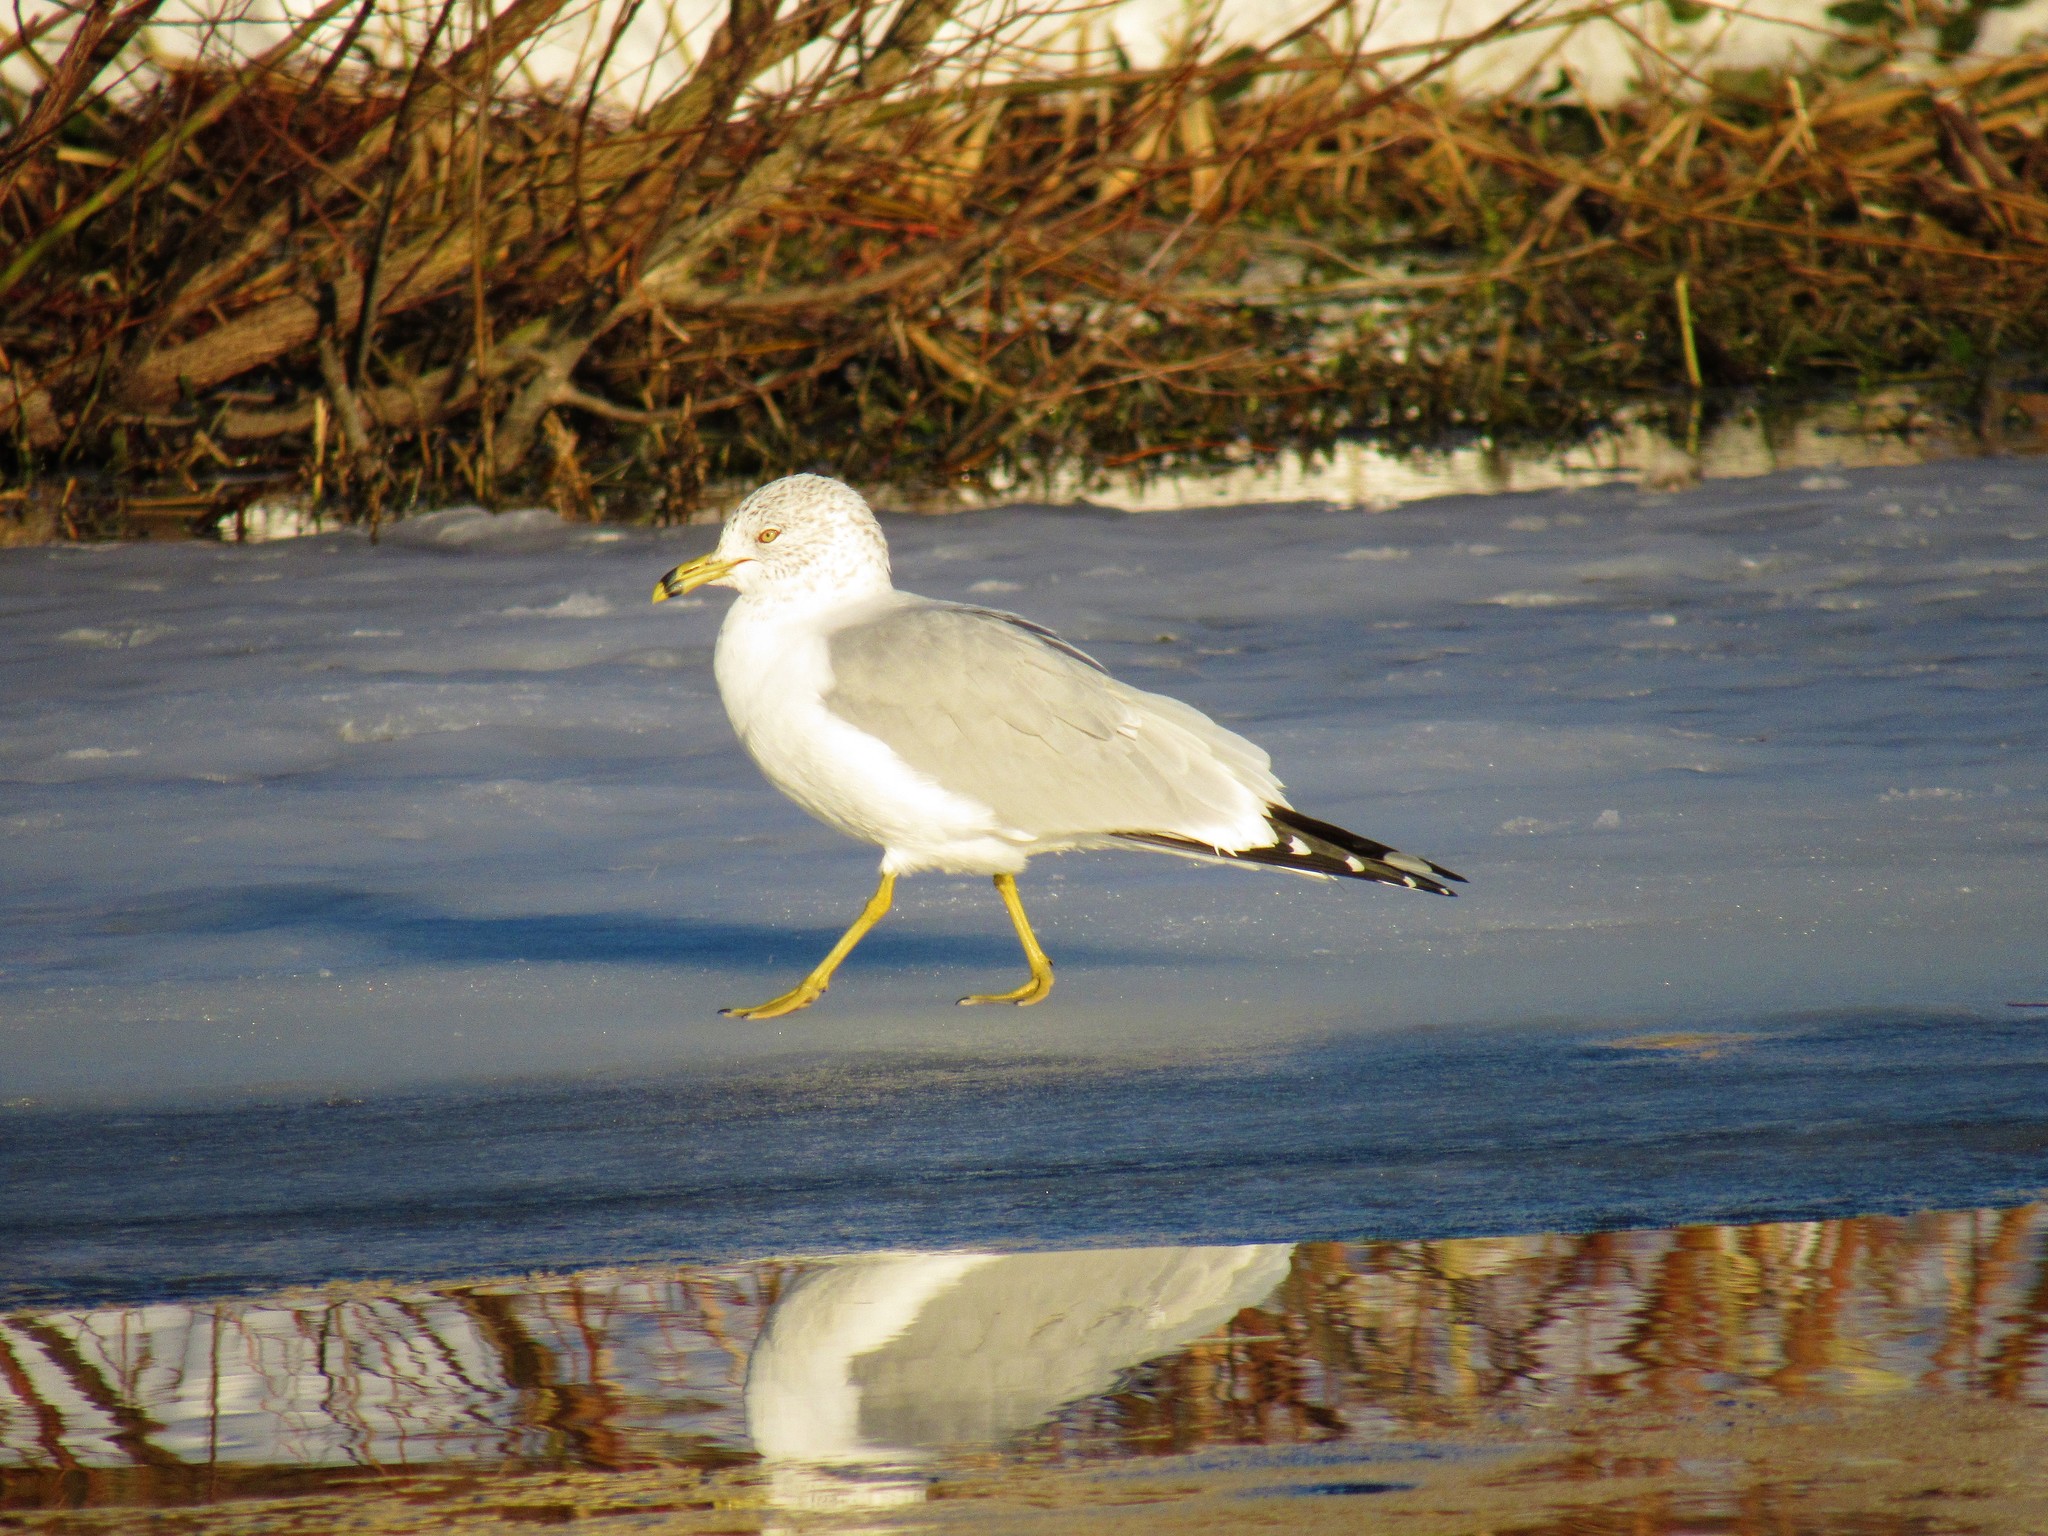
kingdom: Animalia
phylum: Chordata
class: Aves
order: Charadriiformes
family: Laridae
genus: Larus
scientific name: Larus delawarensis
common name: Ring-billed gull
